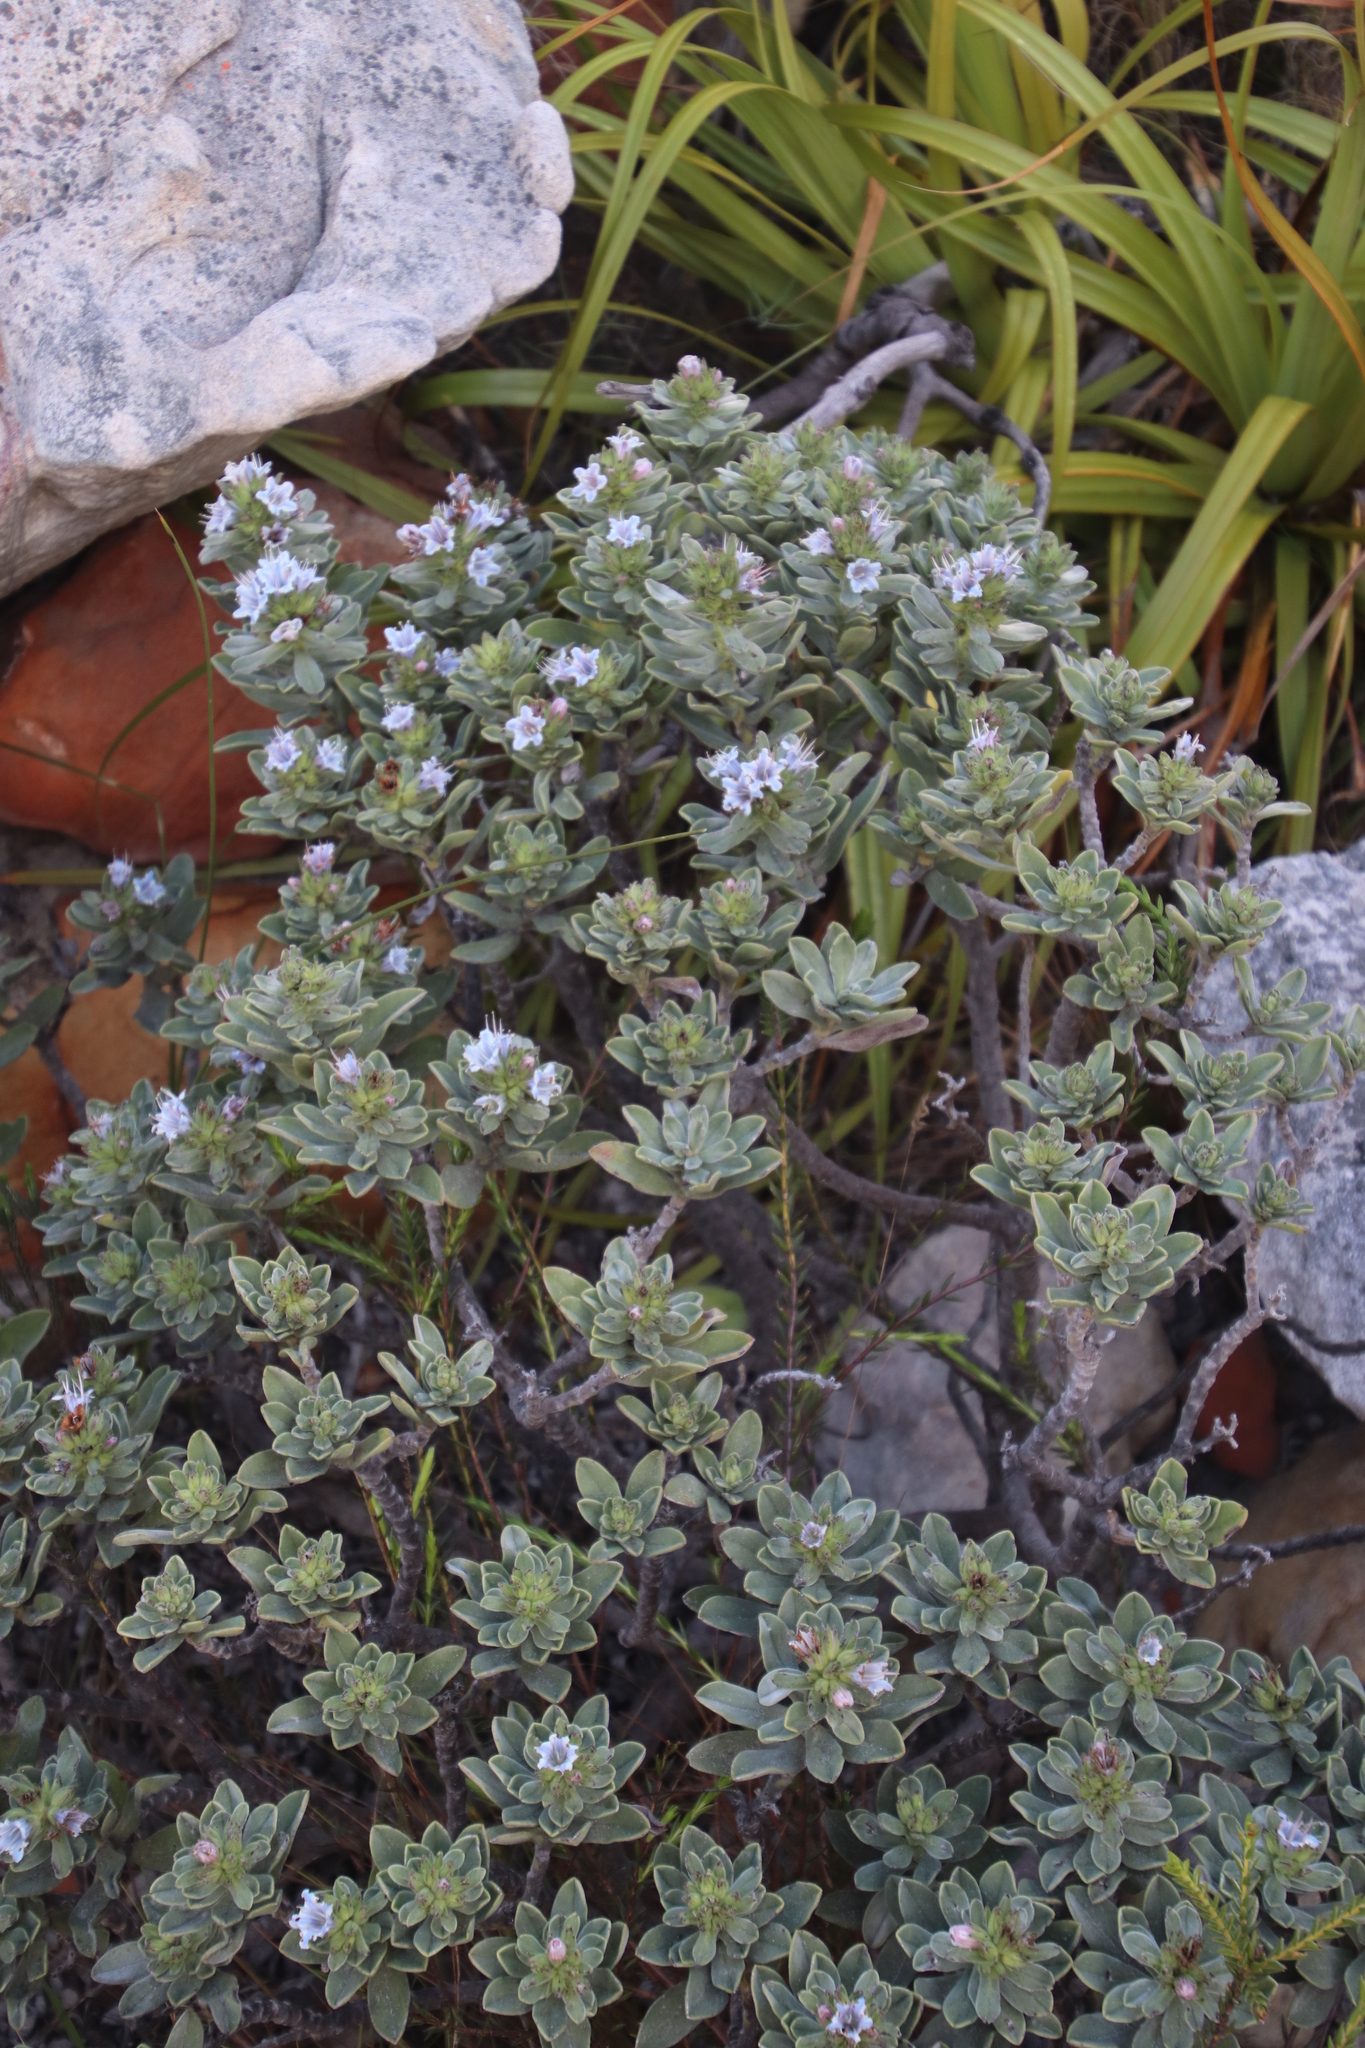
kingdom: Plantae
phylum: Tracheophyta
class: Magnoliopsida
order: Boraginales
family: Boraginaceae
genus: Lobostemon
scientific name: Lobostemon montanus
